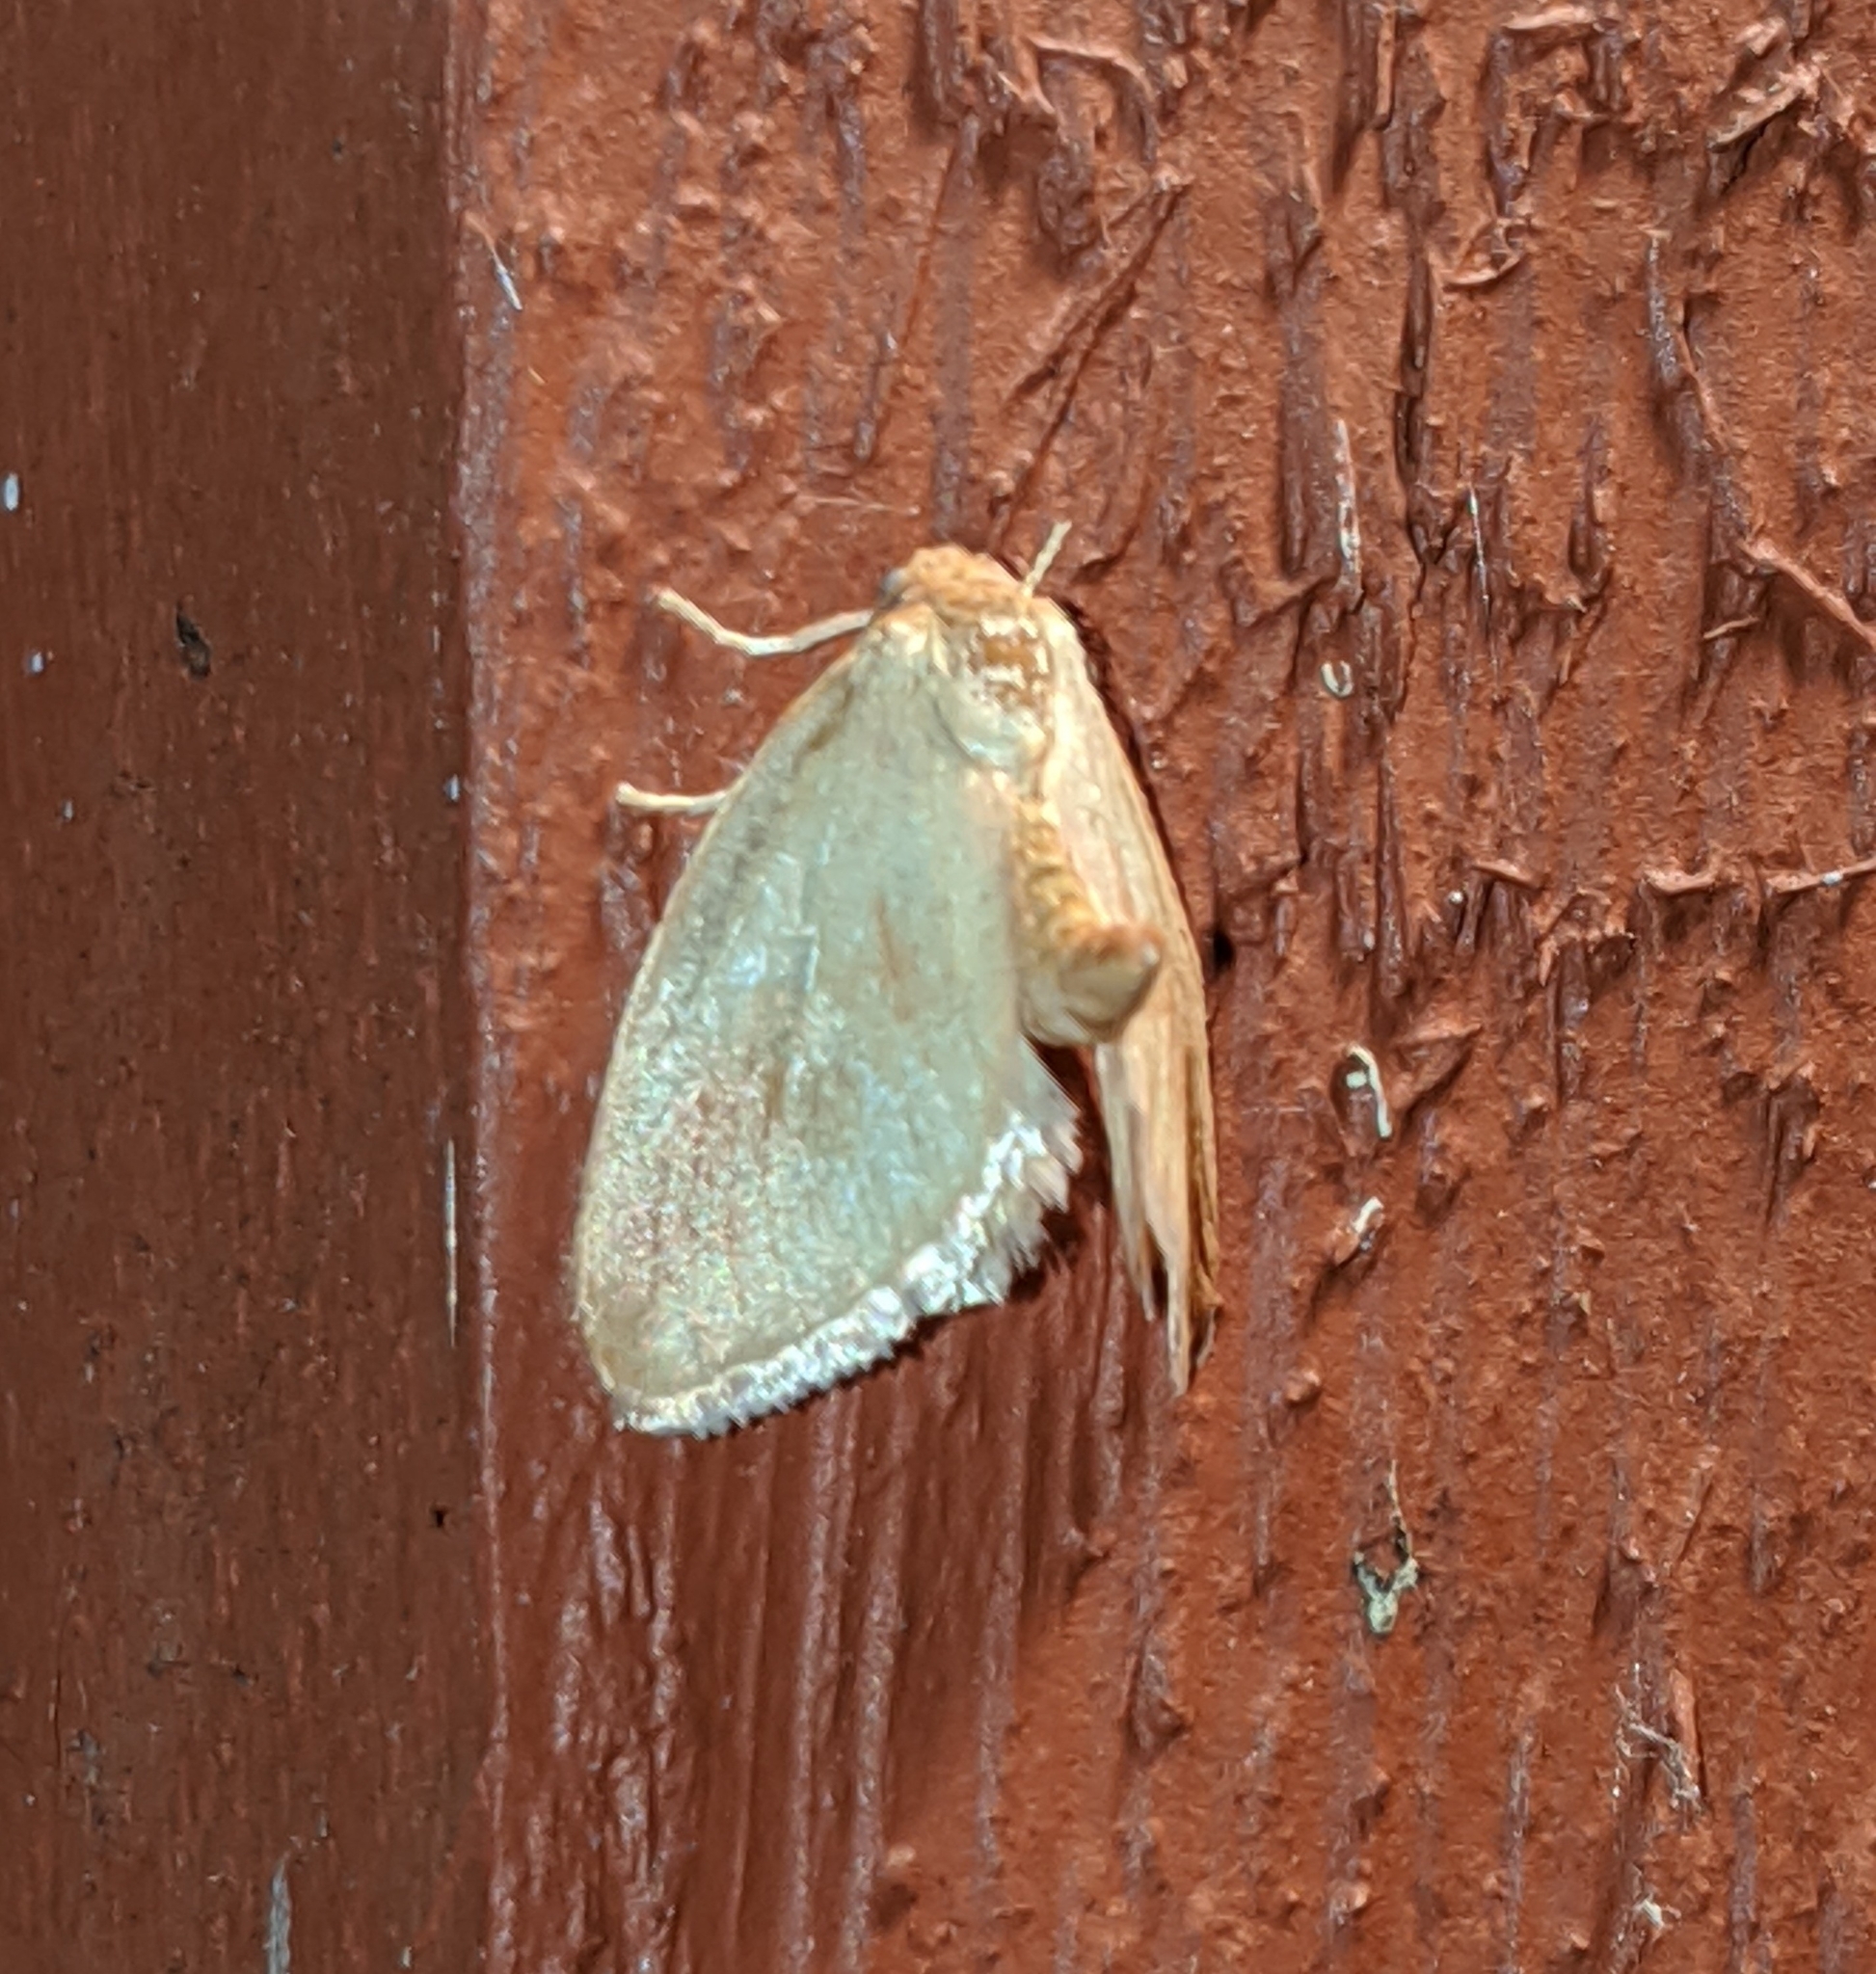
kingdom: Animalia
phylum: Arthropoda
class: Insecta
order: Lepidoptera
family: Limacodidae
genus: Tortricidia
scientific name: Tortricidia testacea
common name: Early button slug moth
